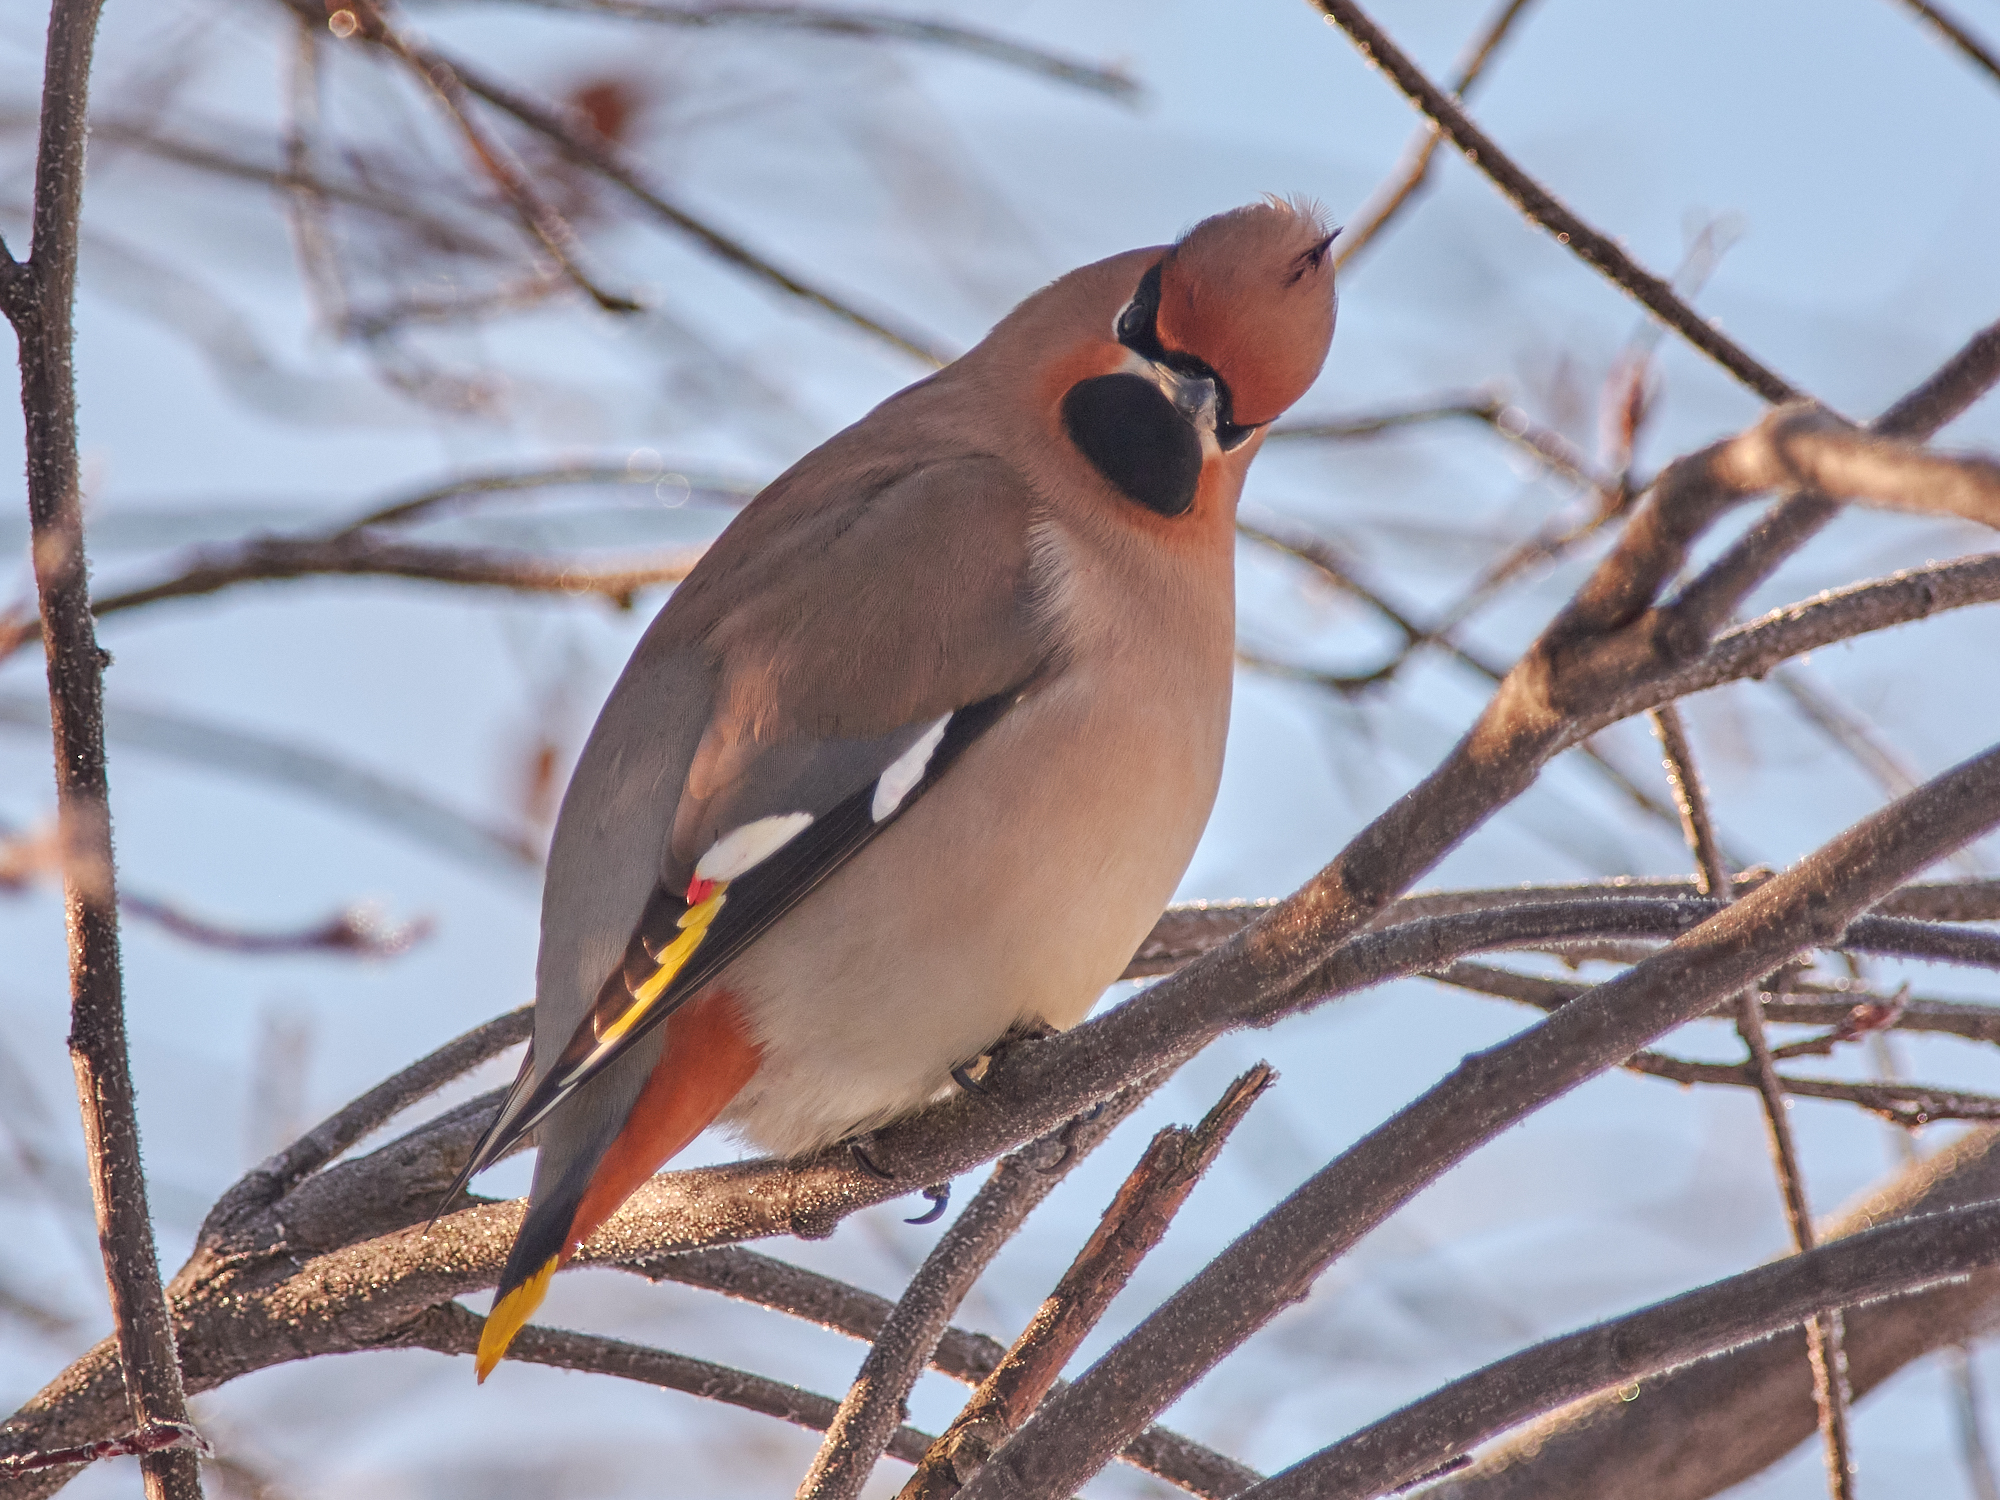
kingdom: Animalia
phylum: Chordata
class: Aves
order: Passeriformes
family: Bombycillidae
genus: Bombycilla
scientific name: Bombycilla garrulus
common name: Bohemian waxwing
